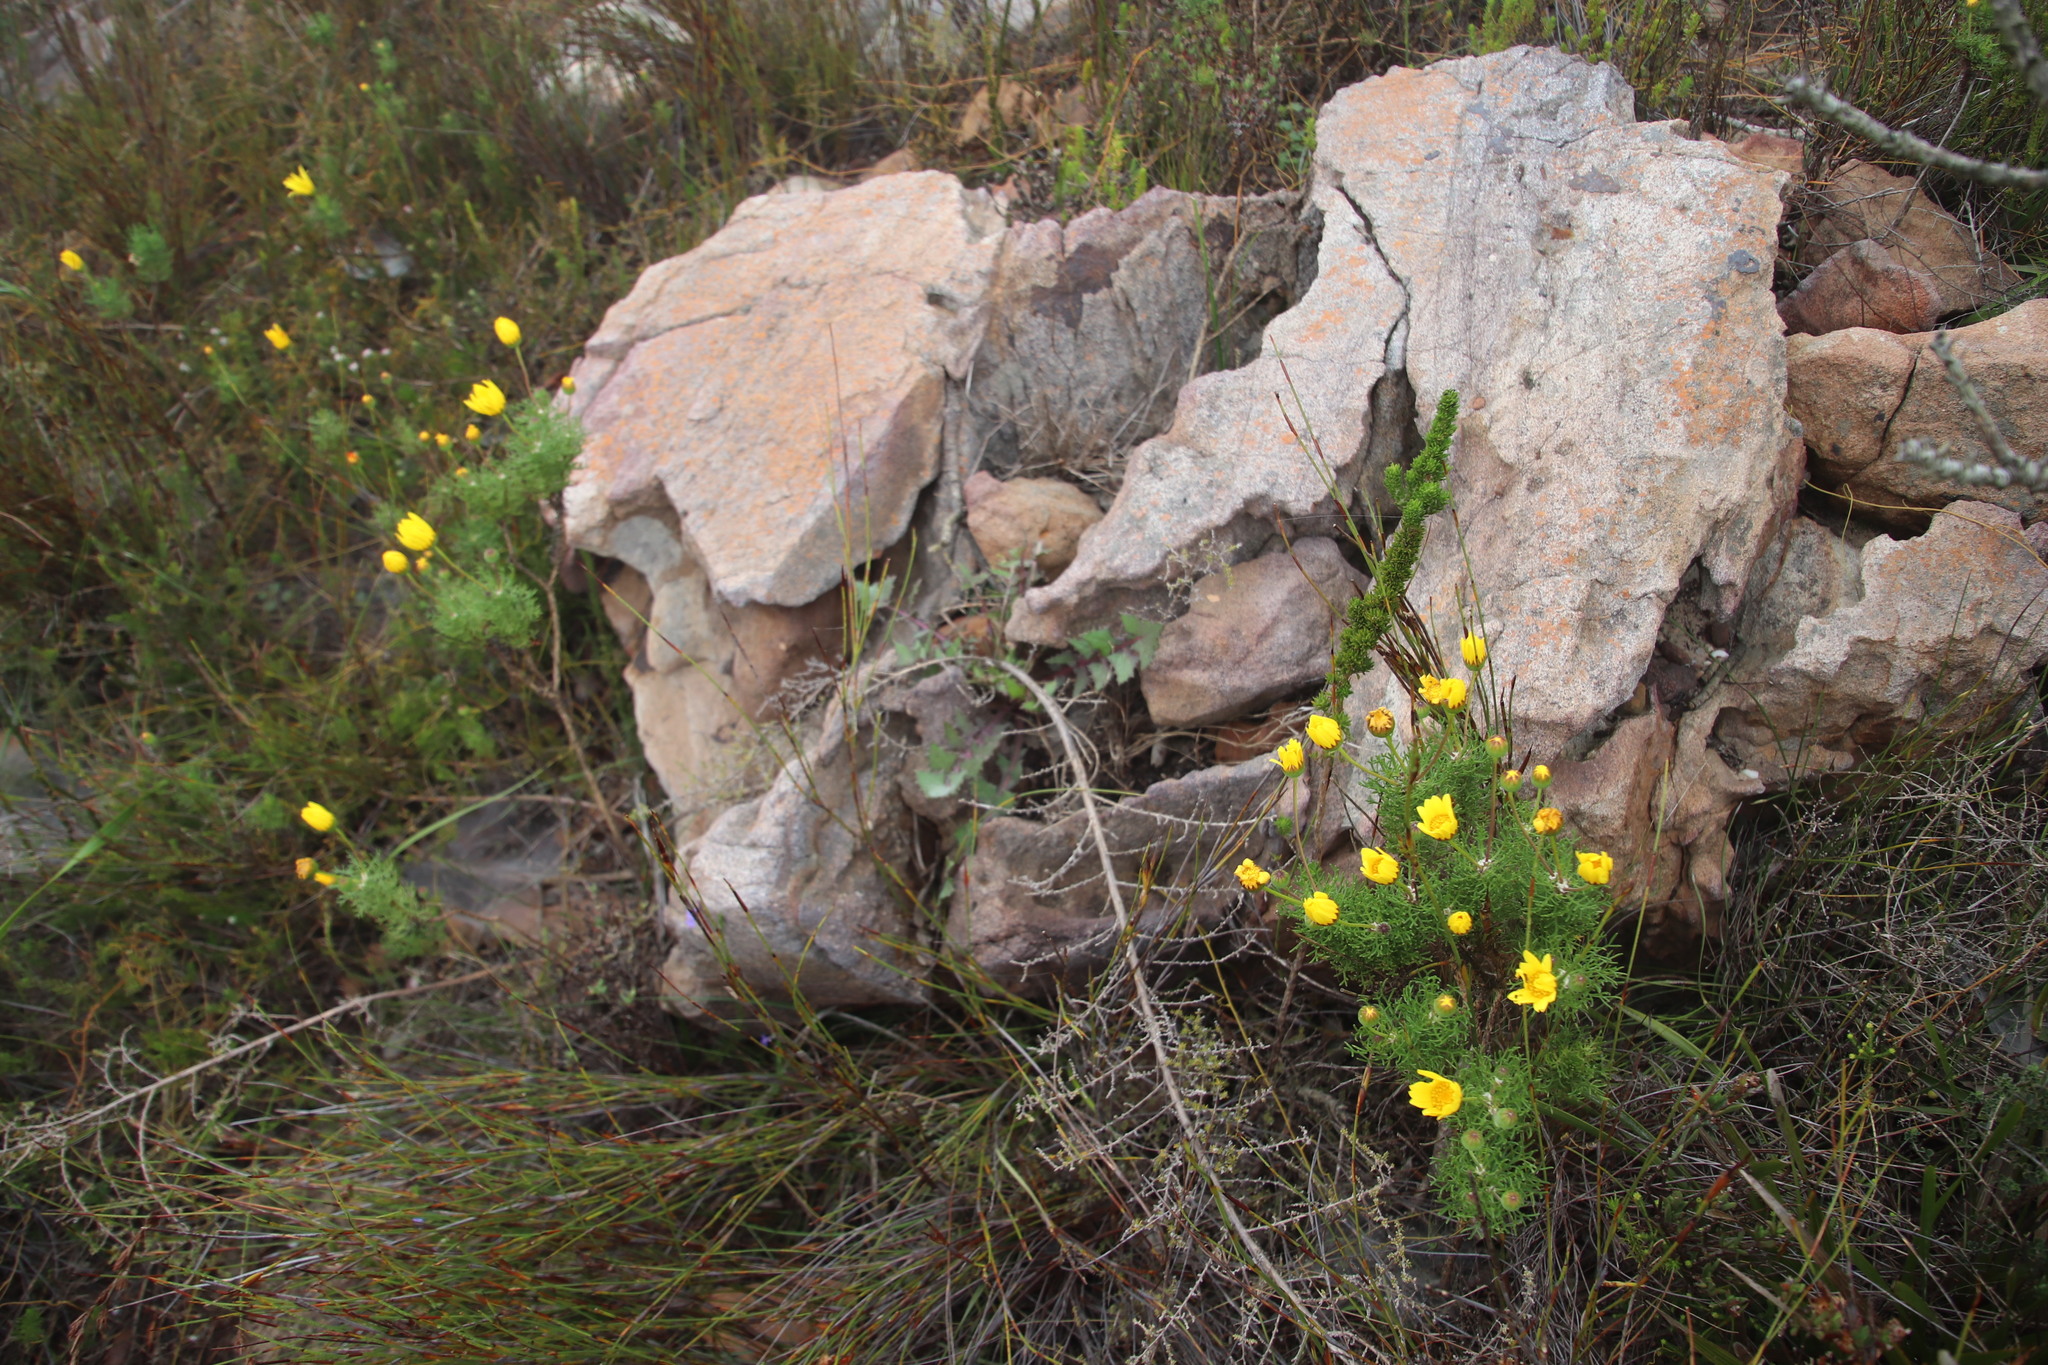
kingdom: Plantae
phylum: Tracheophyta
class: Magnoliopsida
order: Asterales
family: Asteraceae
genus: Sonchus
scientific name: Sonchus oleraceus
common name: Common sowthistle
